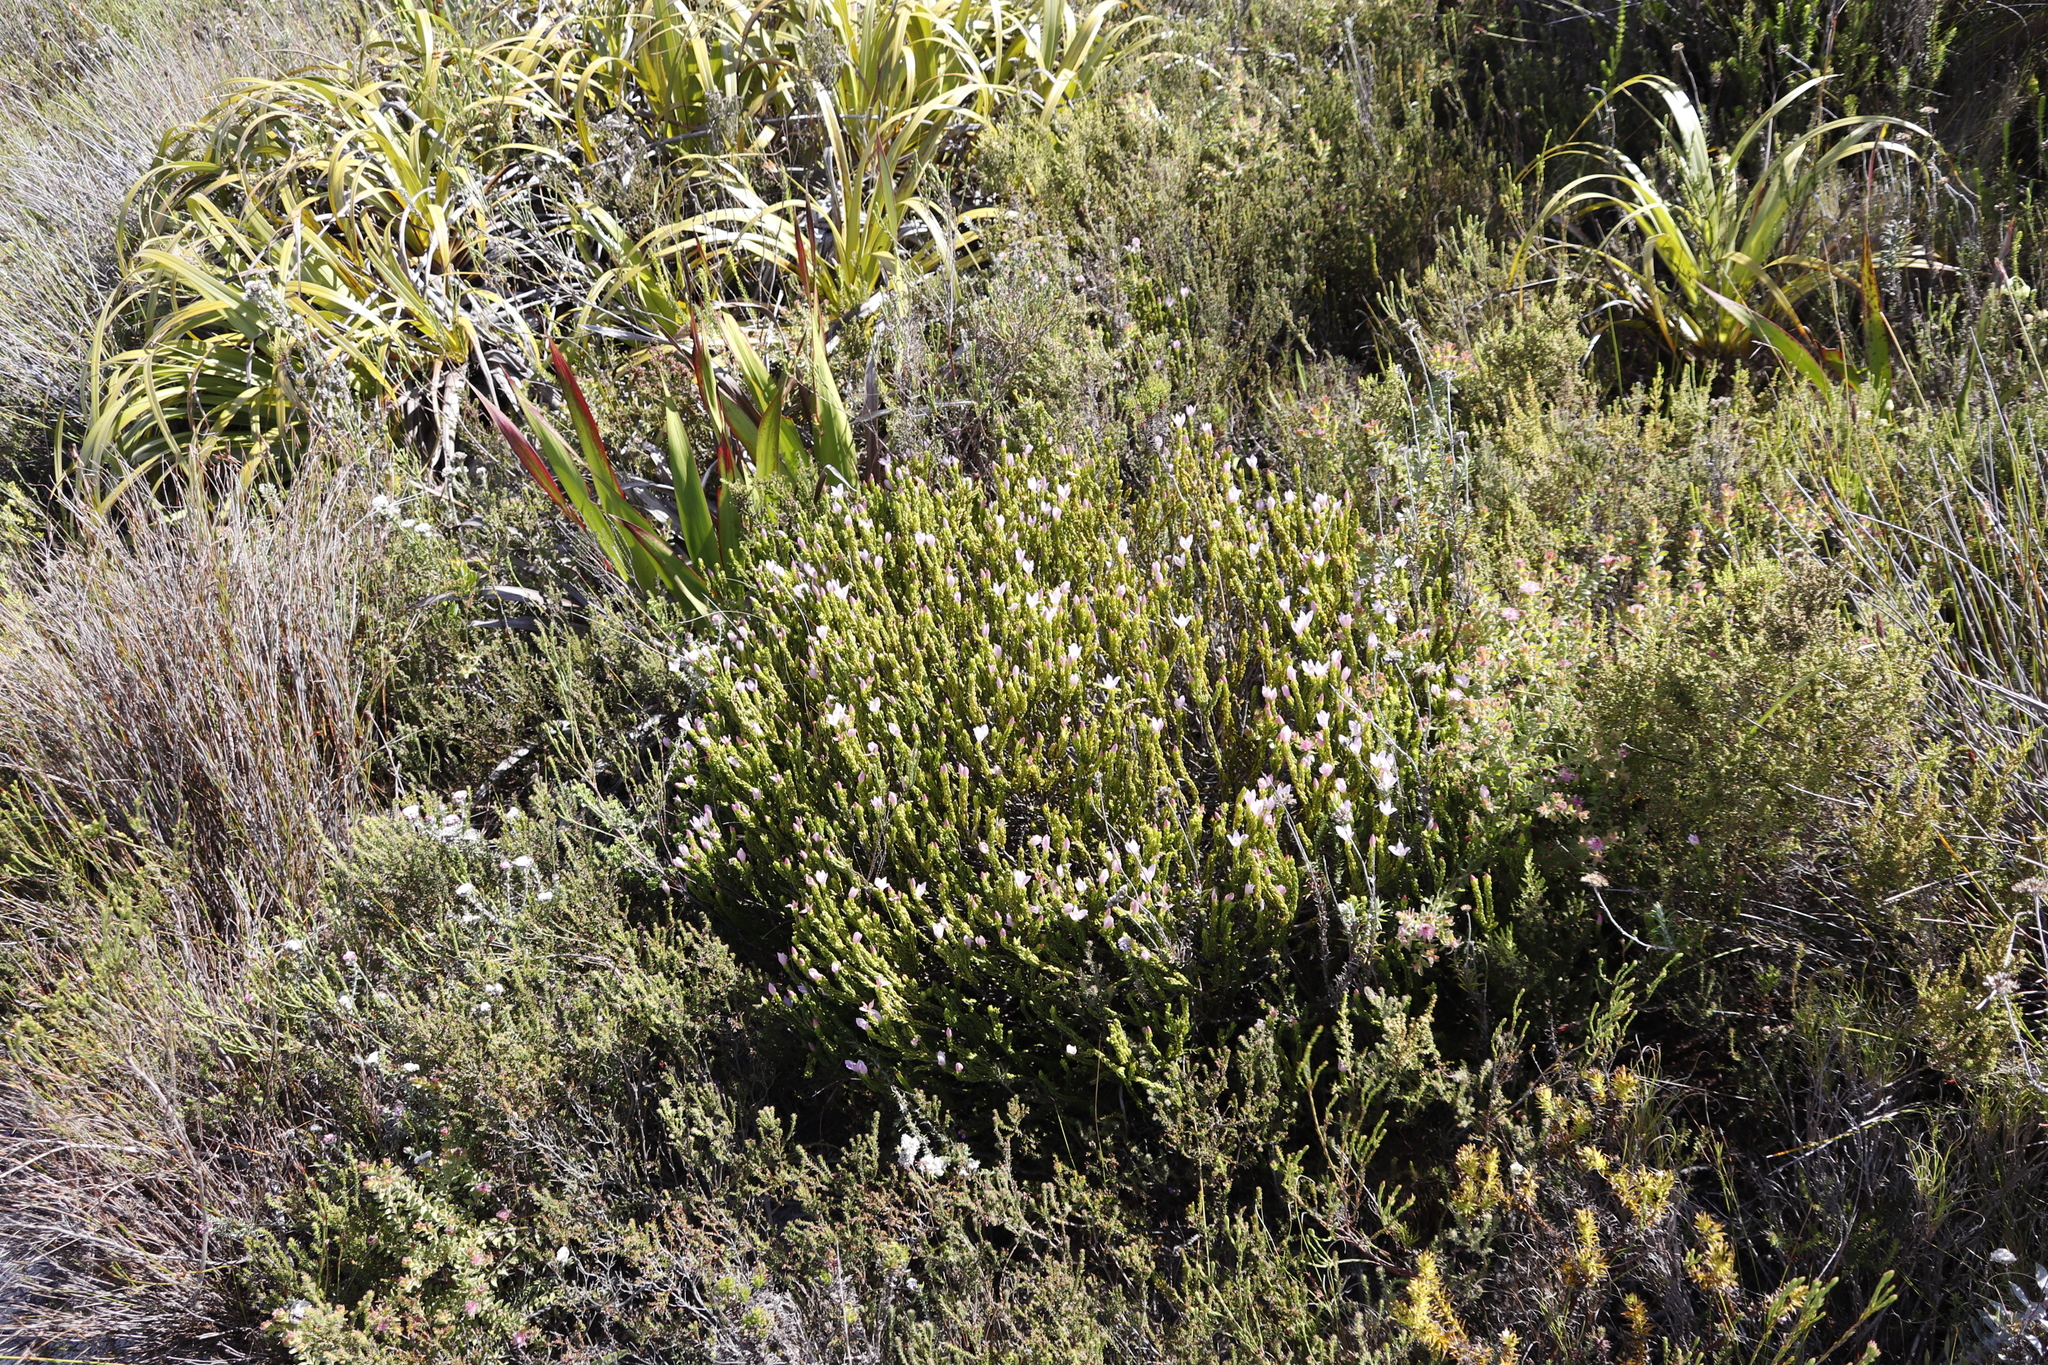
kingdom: Plantae
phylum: Tracheophyta
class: Magnoliopsida
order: Malvales
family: Thymelaeaceae
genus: Lachnaea
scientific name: Lachnaea grandiflora
